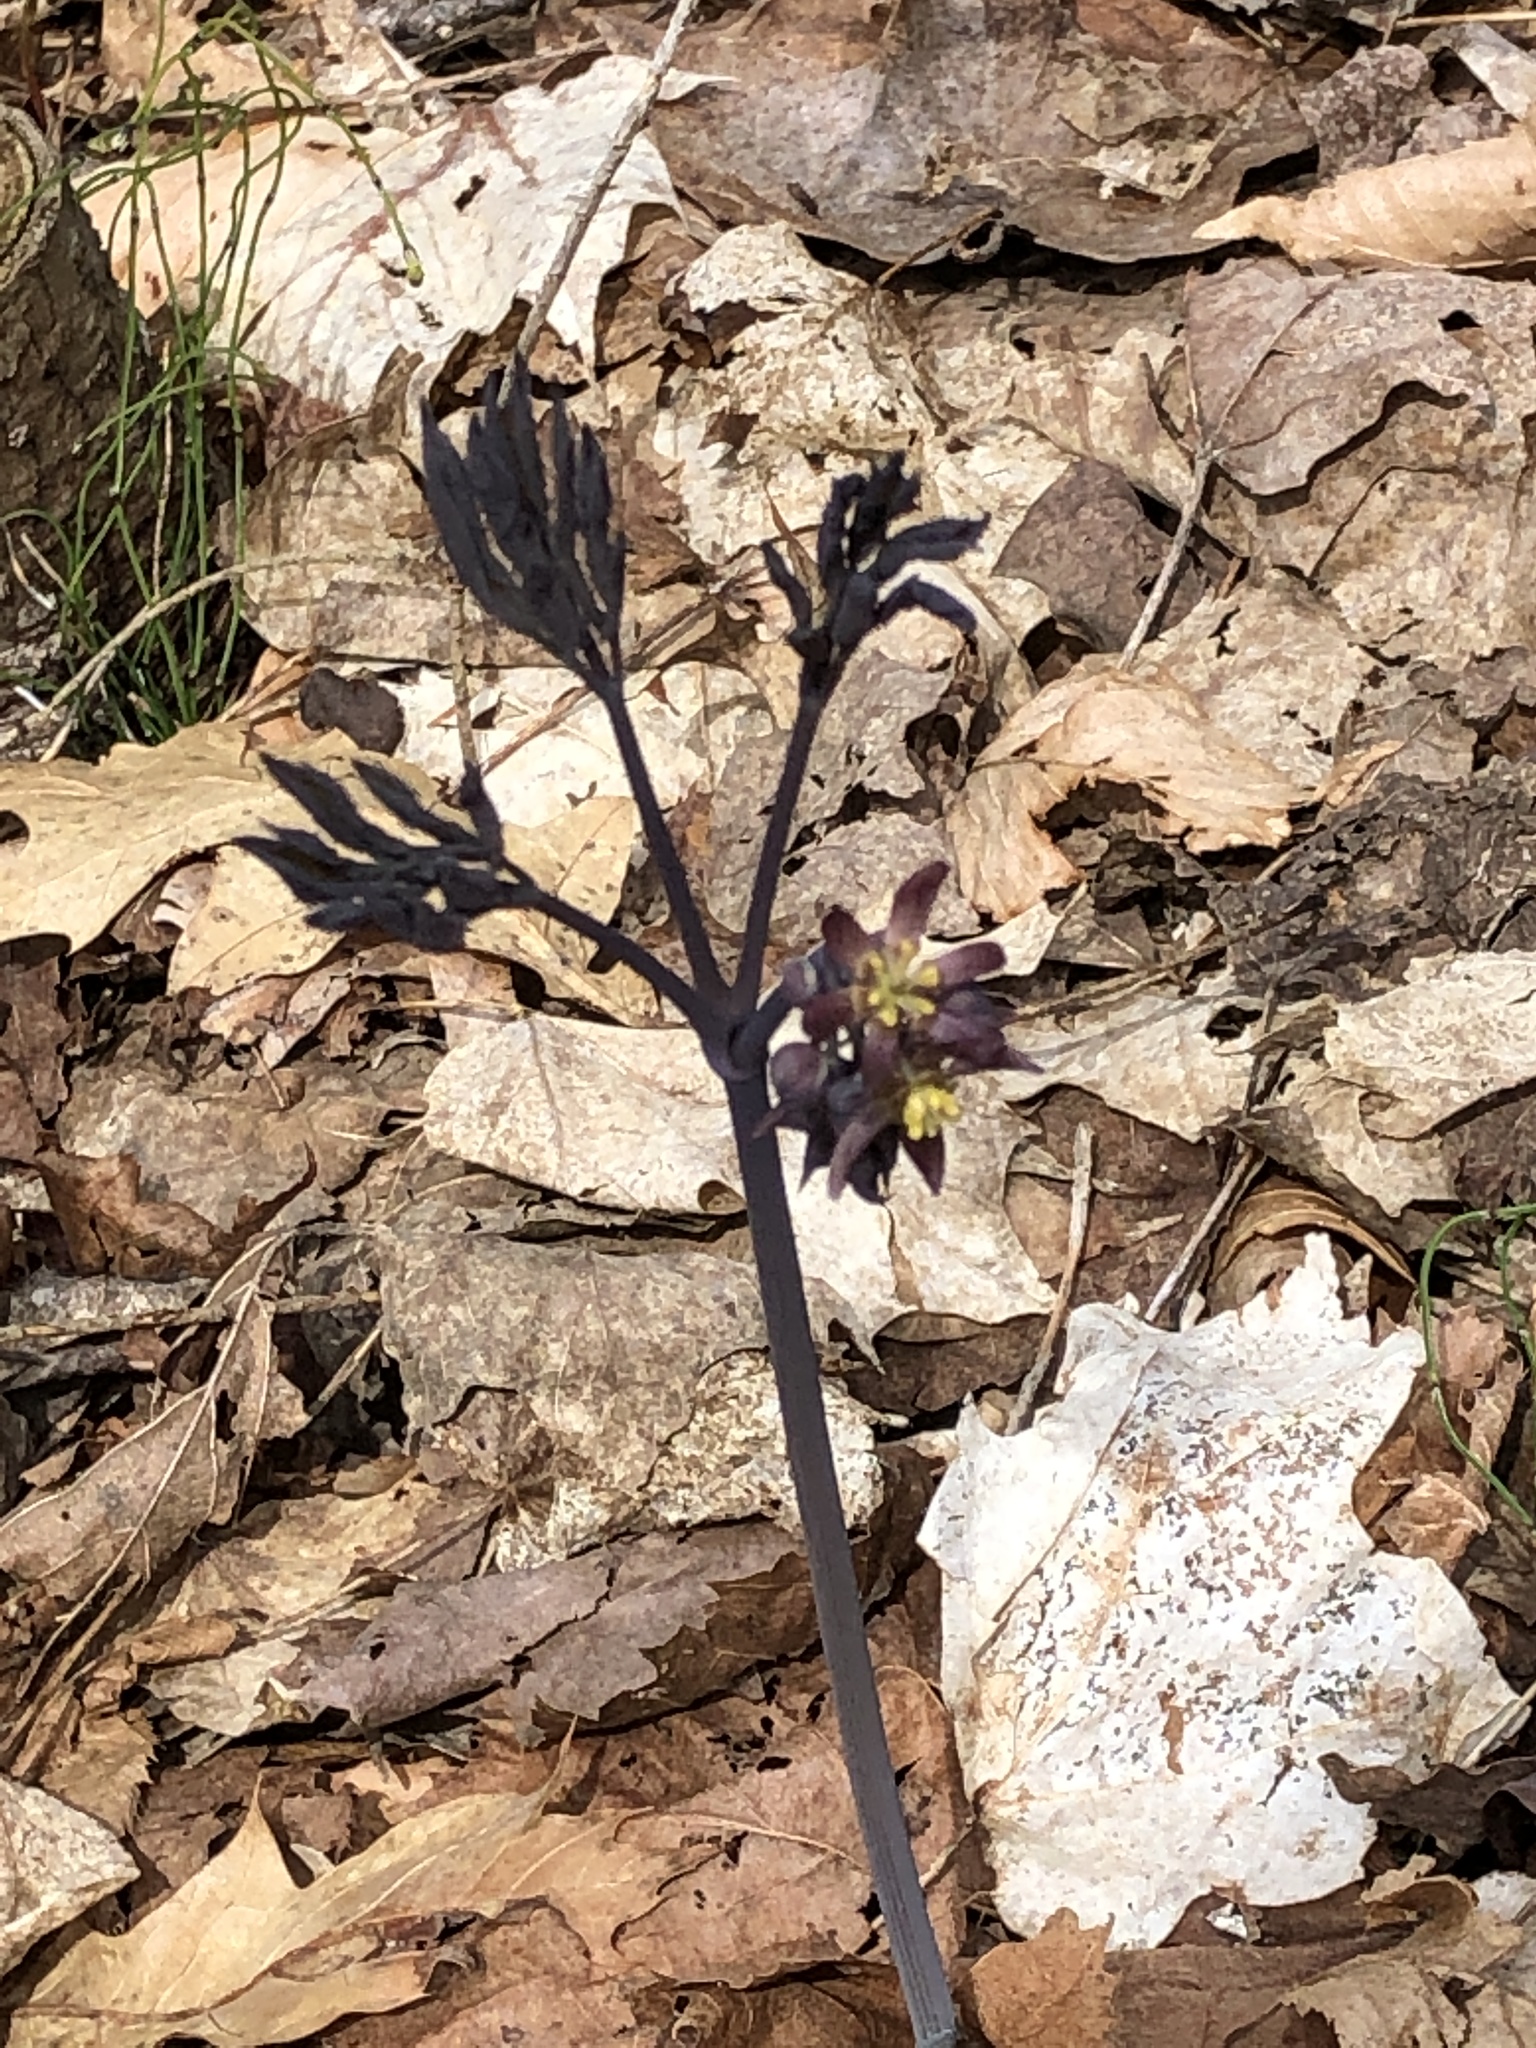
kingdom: Plantae
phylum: Tracheophyta
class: Magnoliopsida
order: Ranunculales
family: Berberidaceae
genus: Caulophyllum
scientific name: Caulophyllum giganteum
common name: Blue cohosh
